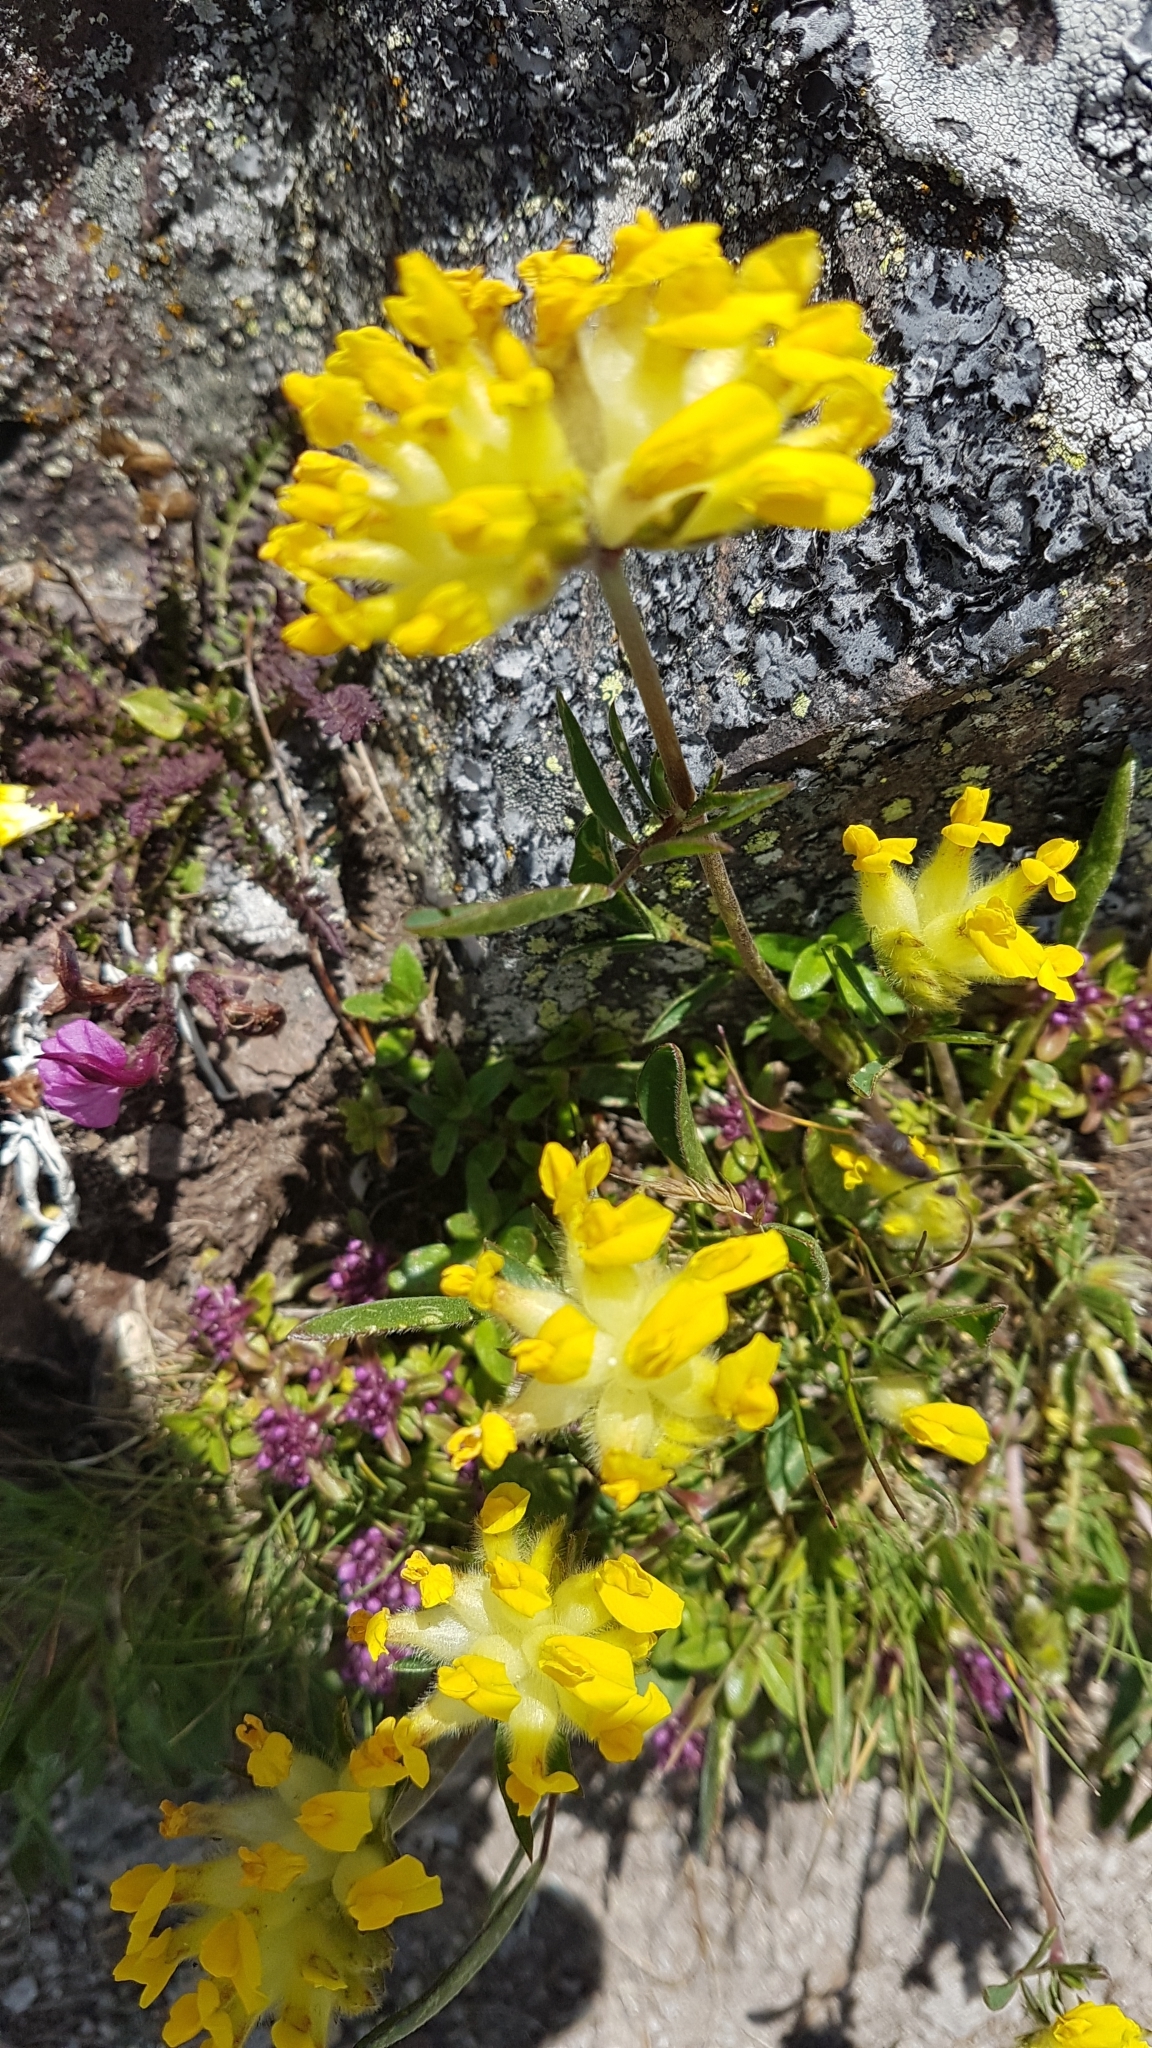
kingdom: Plantae
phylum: Tracheophyta
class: Magnoliopsida
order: Fabales
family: Fabaceae
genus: Anthyllis
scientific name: Anthyllis vulneraria
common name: Kidney vetch
